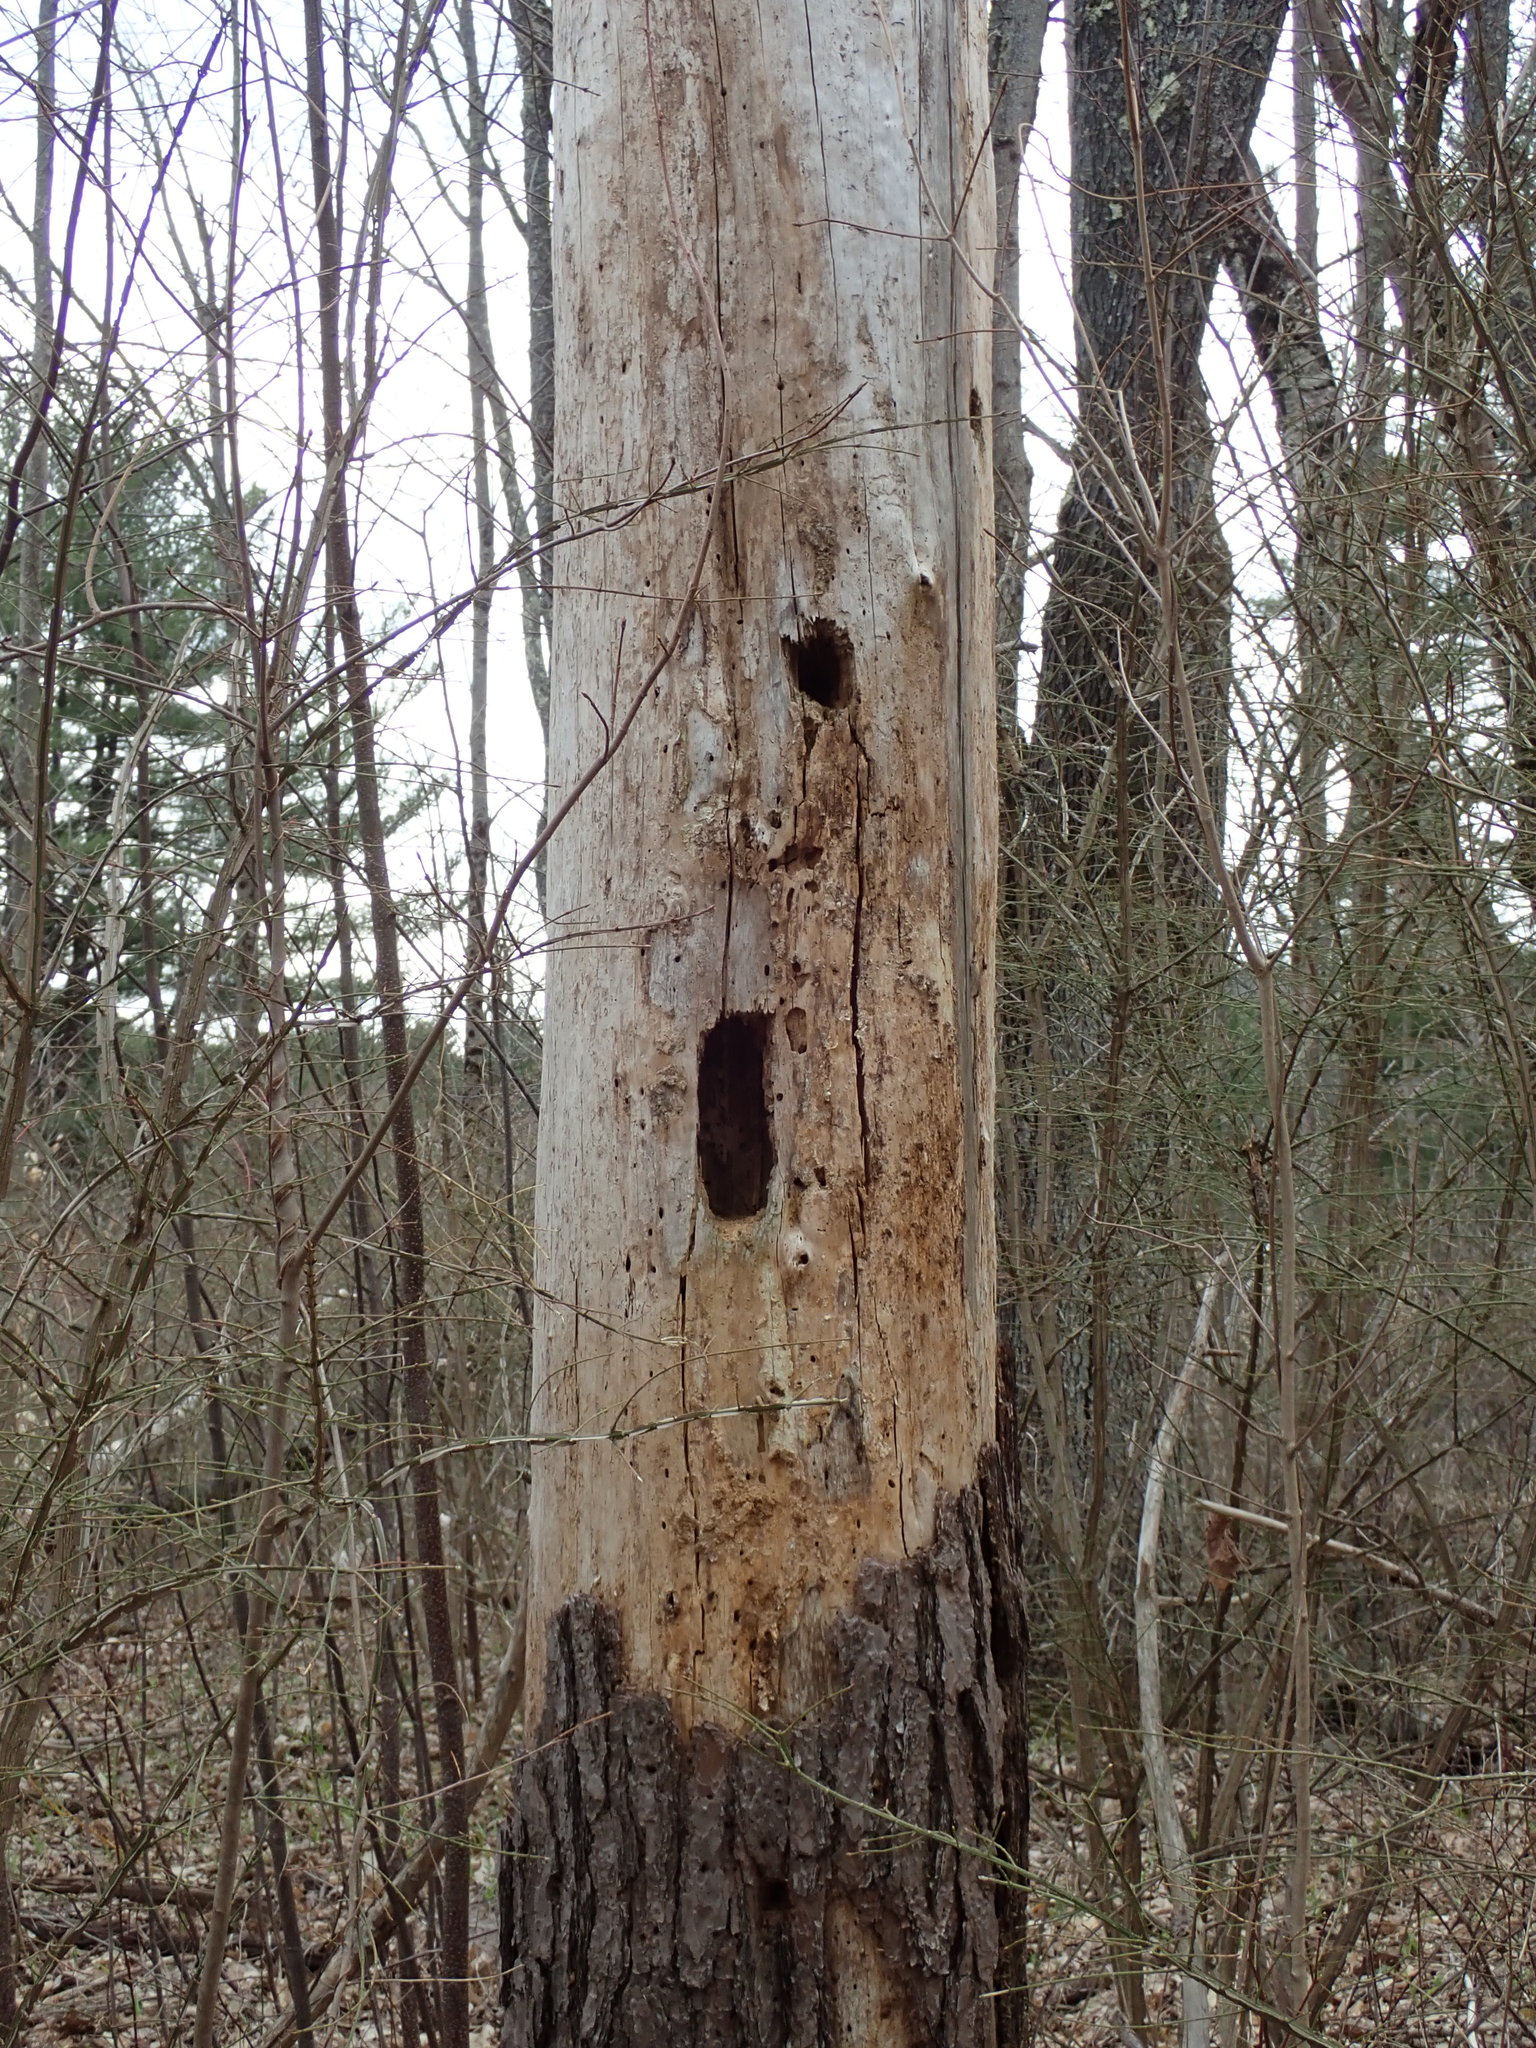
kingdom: Animalia
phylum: Chordata
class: Aves
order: Piciformes
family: Picidae
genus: Dryocopus
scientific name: Dryocopus pileatus
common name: Pileated woodpecker
